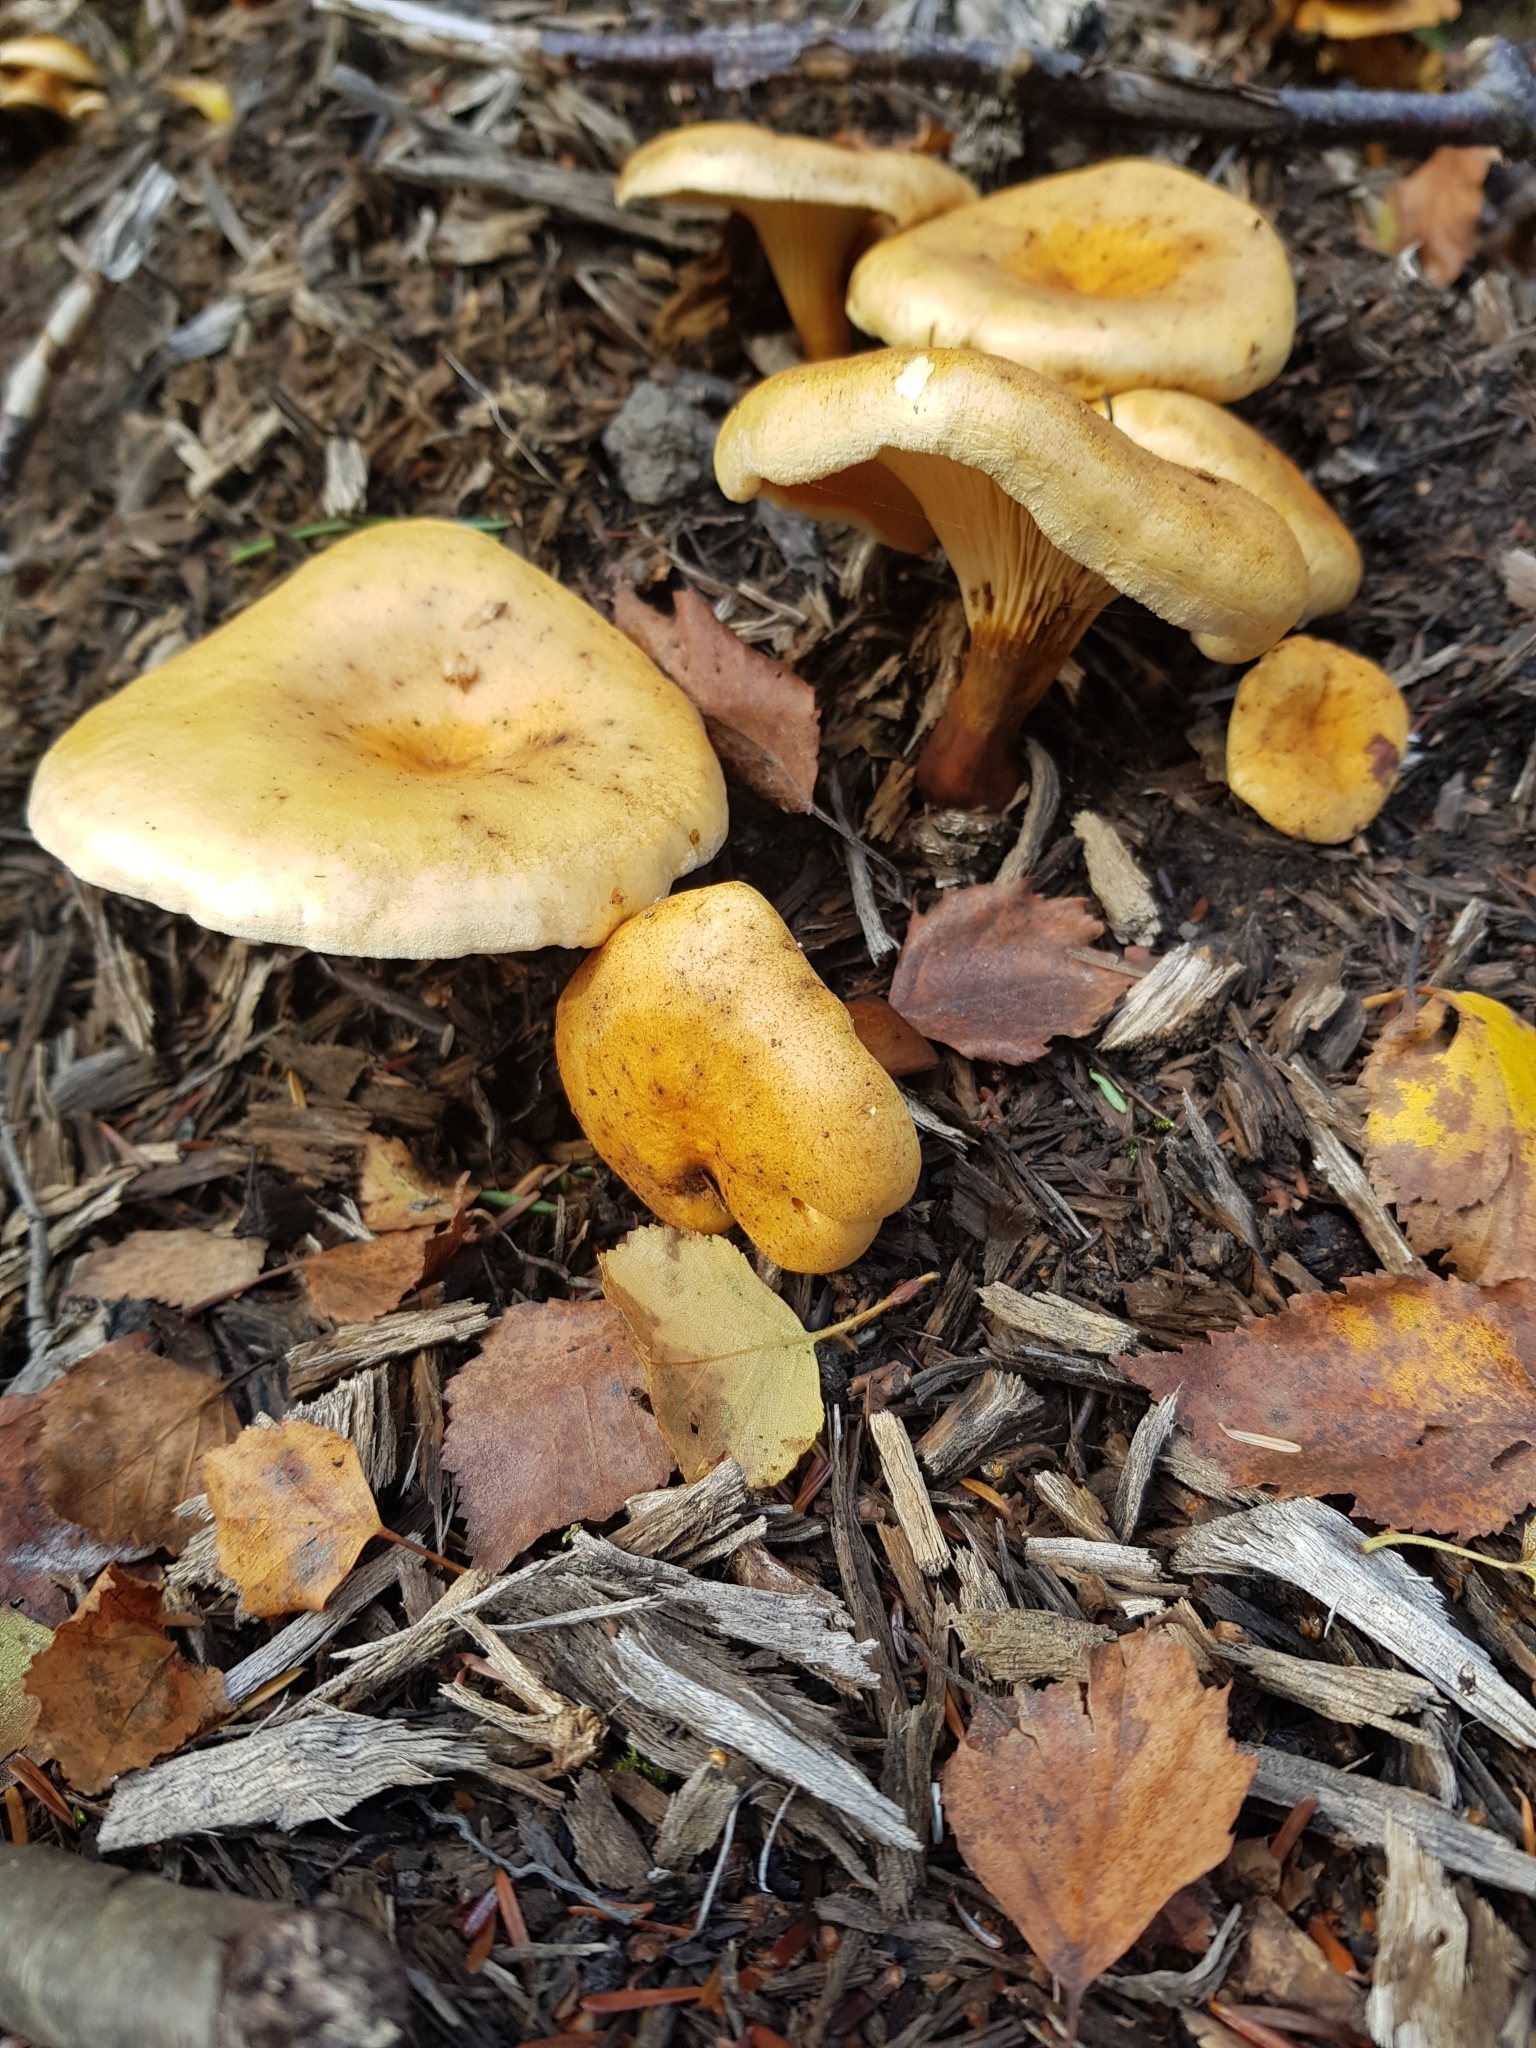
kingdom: Fungi
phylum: Basidiomycota
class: Agaricomycetes
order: Boletales
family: Hygrophoropsidaceae
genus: Hygrophoropsis
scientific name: Hygrophoropsis aurantiaca
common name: False chanterelle
